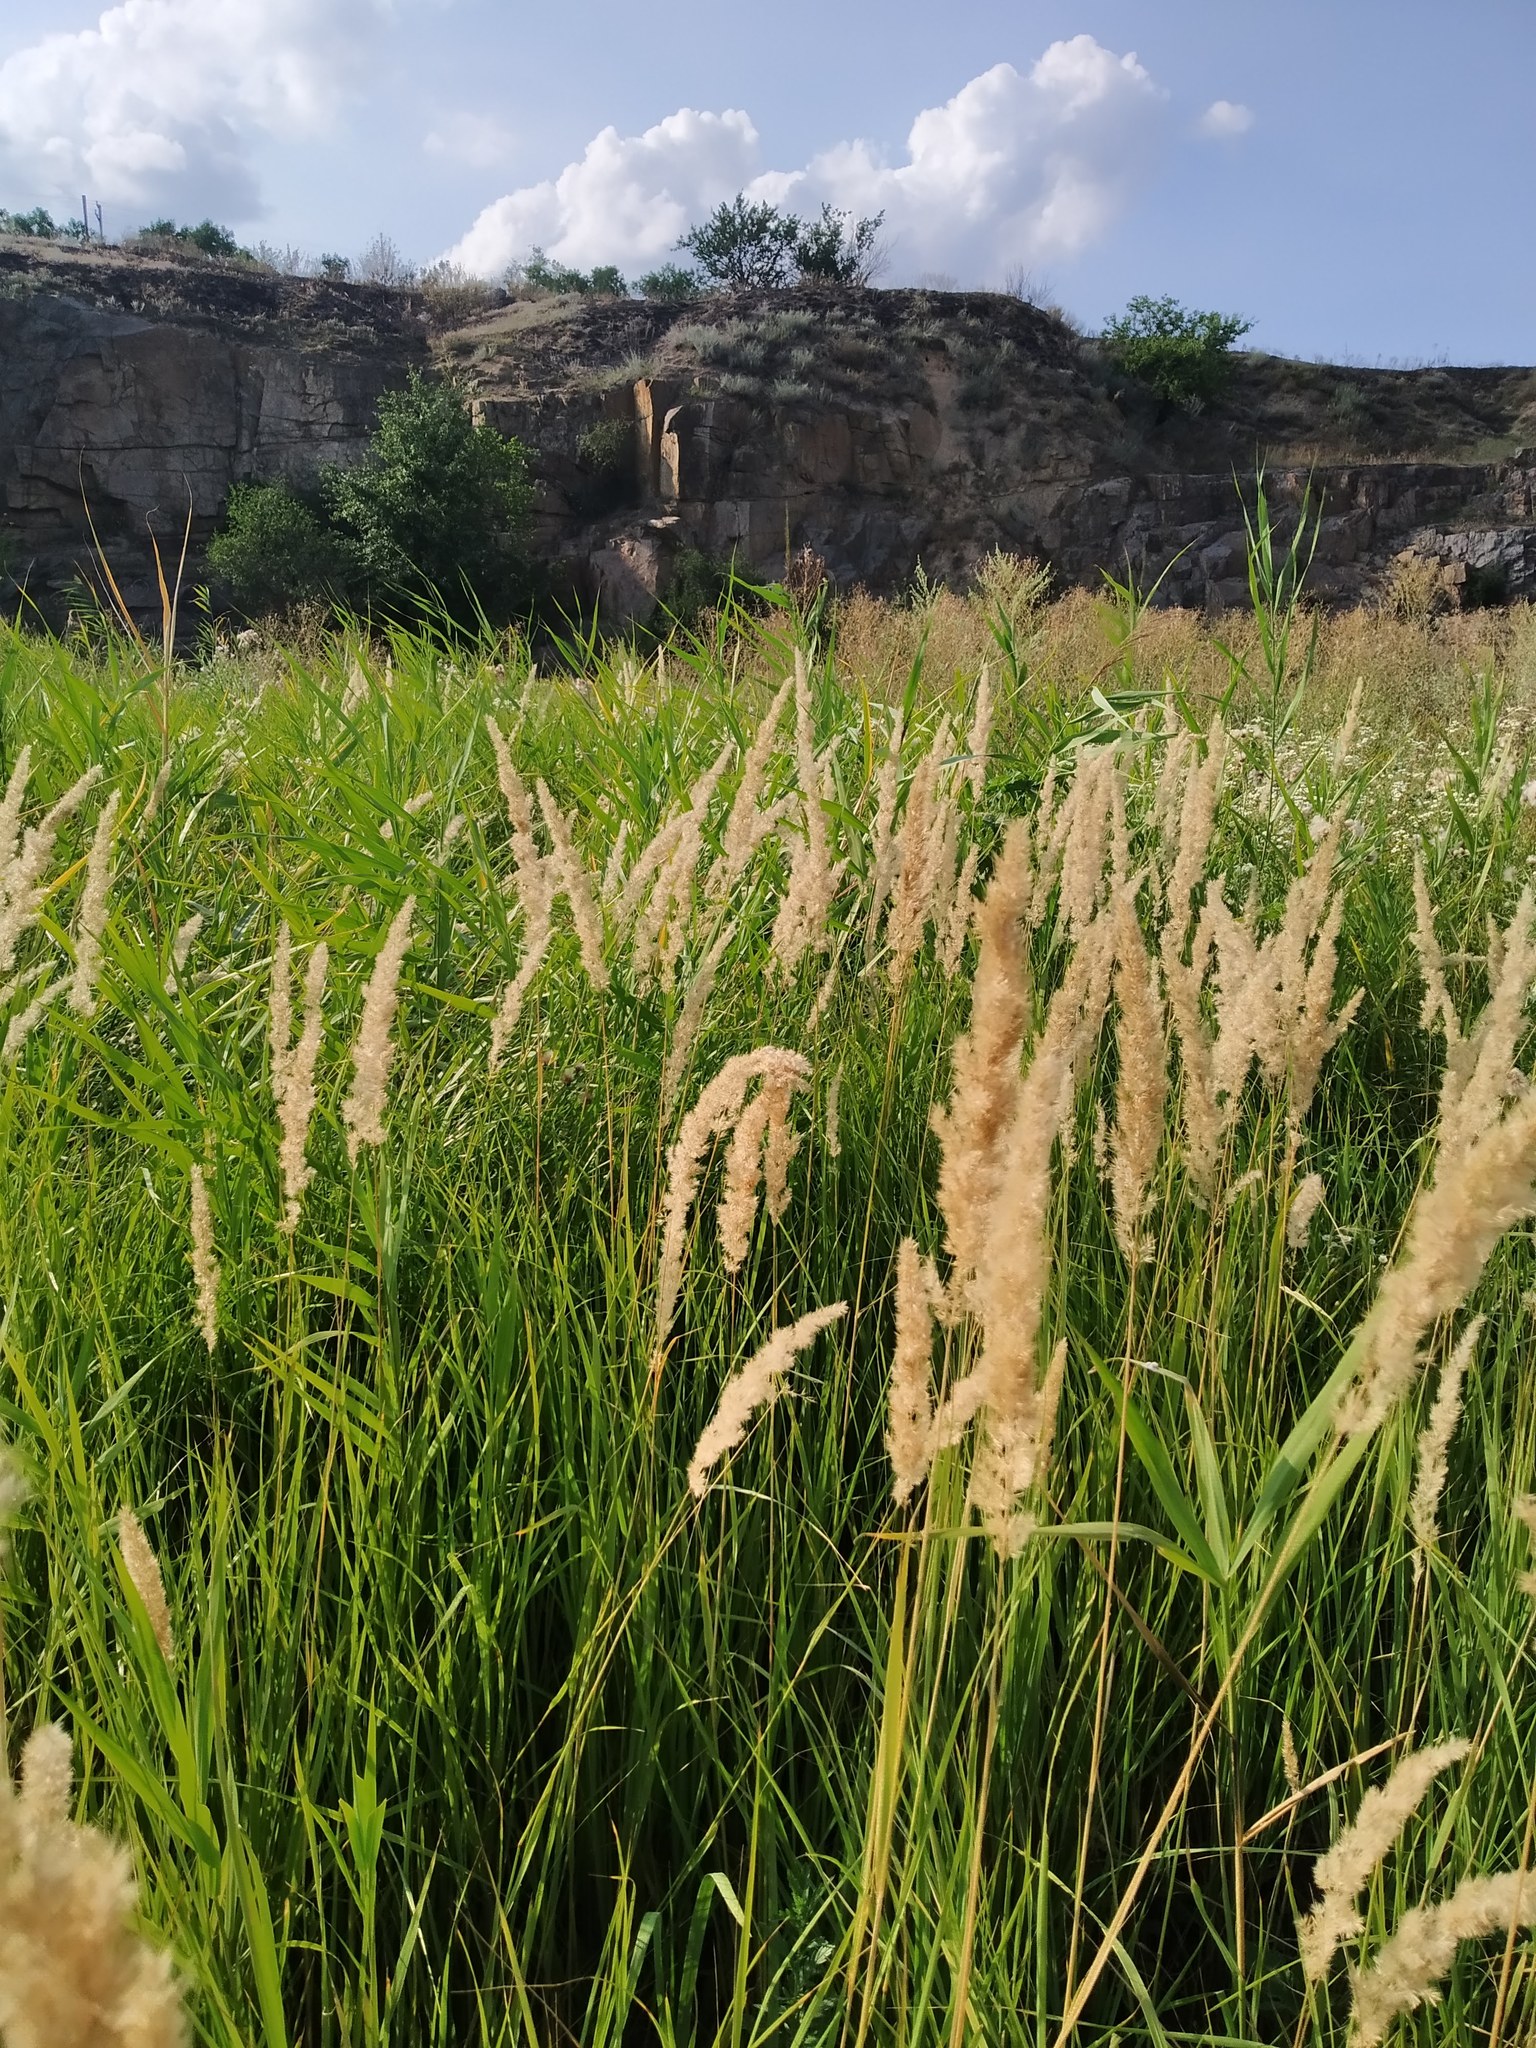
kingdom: Plantae
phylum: Tracheophyta
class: Liliopsida
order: Poales
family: Poaceae
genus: Calamagrostis
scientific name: Calamagrostis epigejos
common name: Wood small-reed
